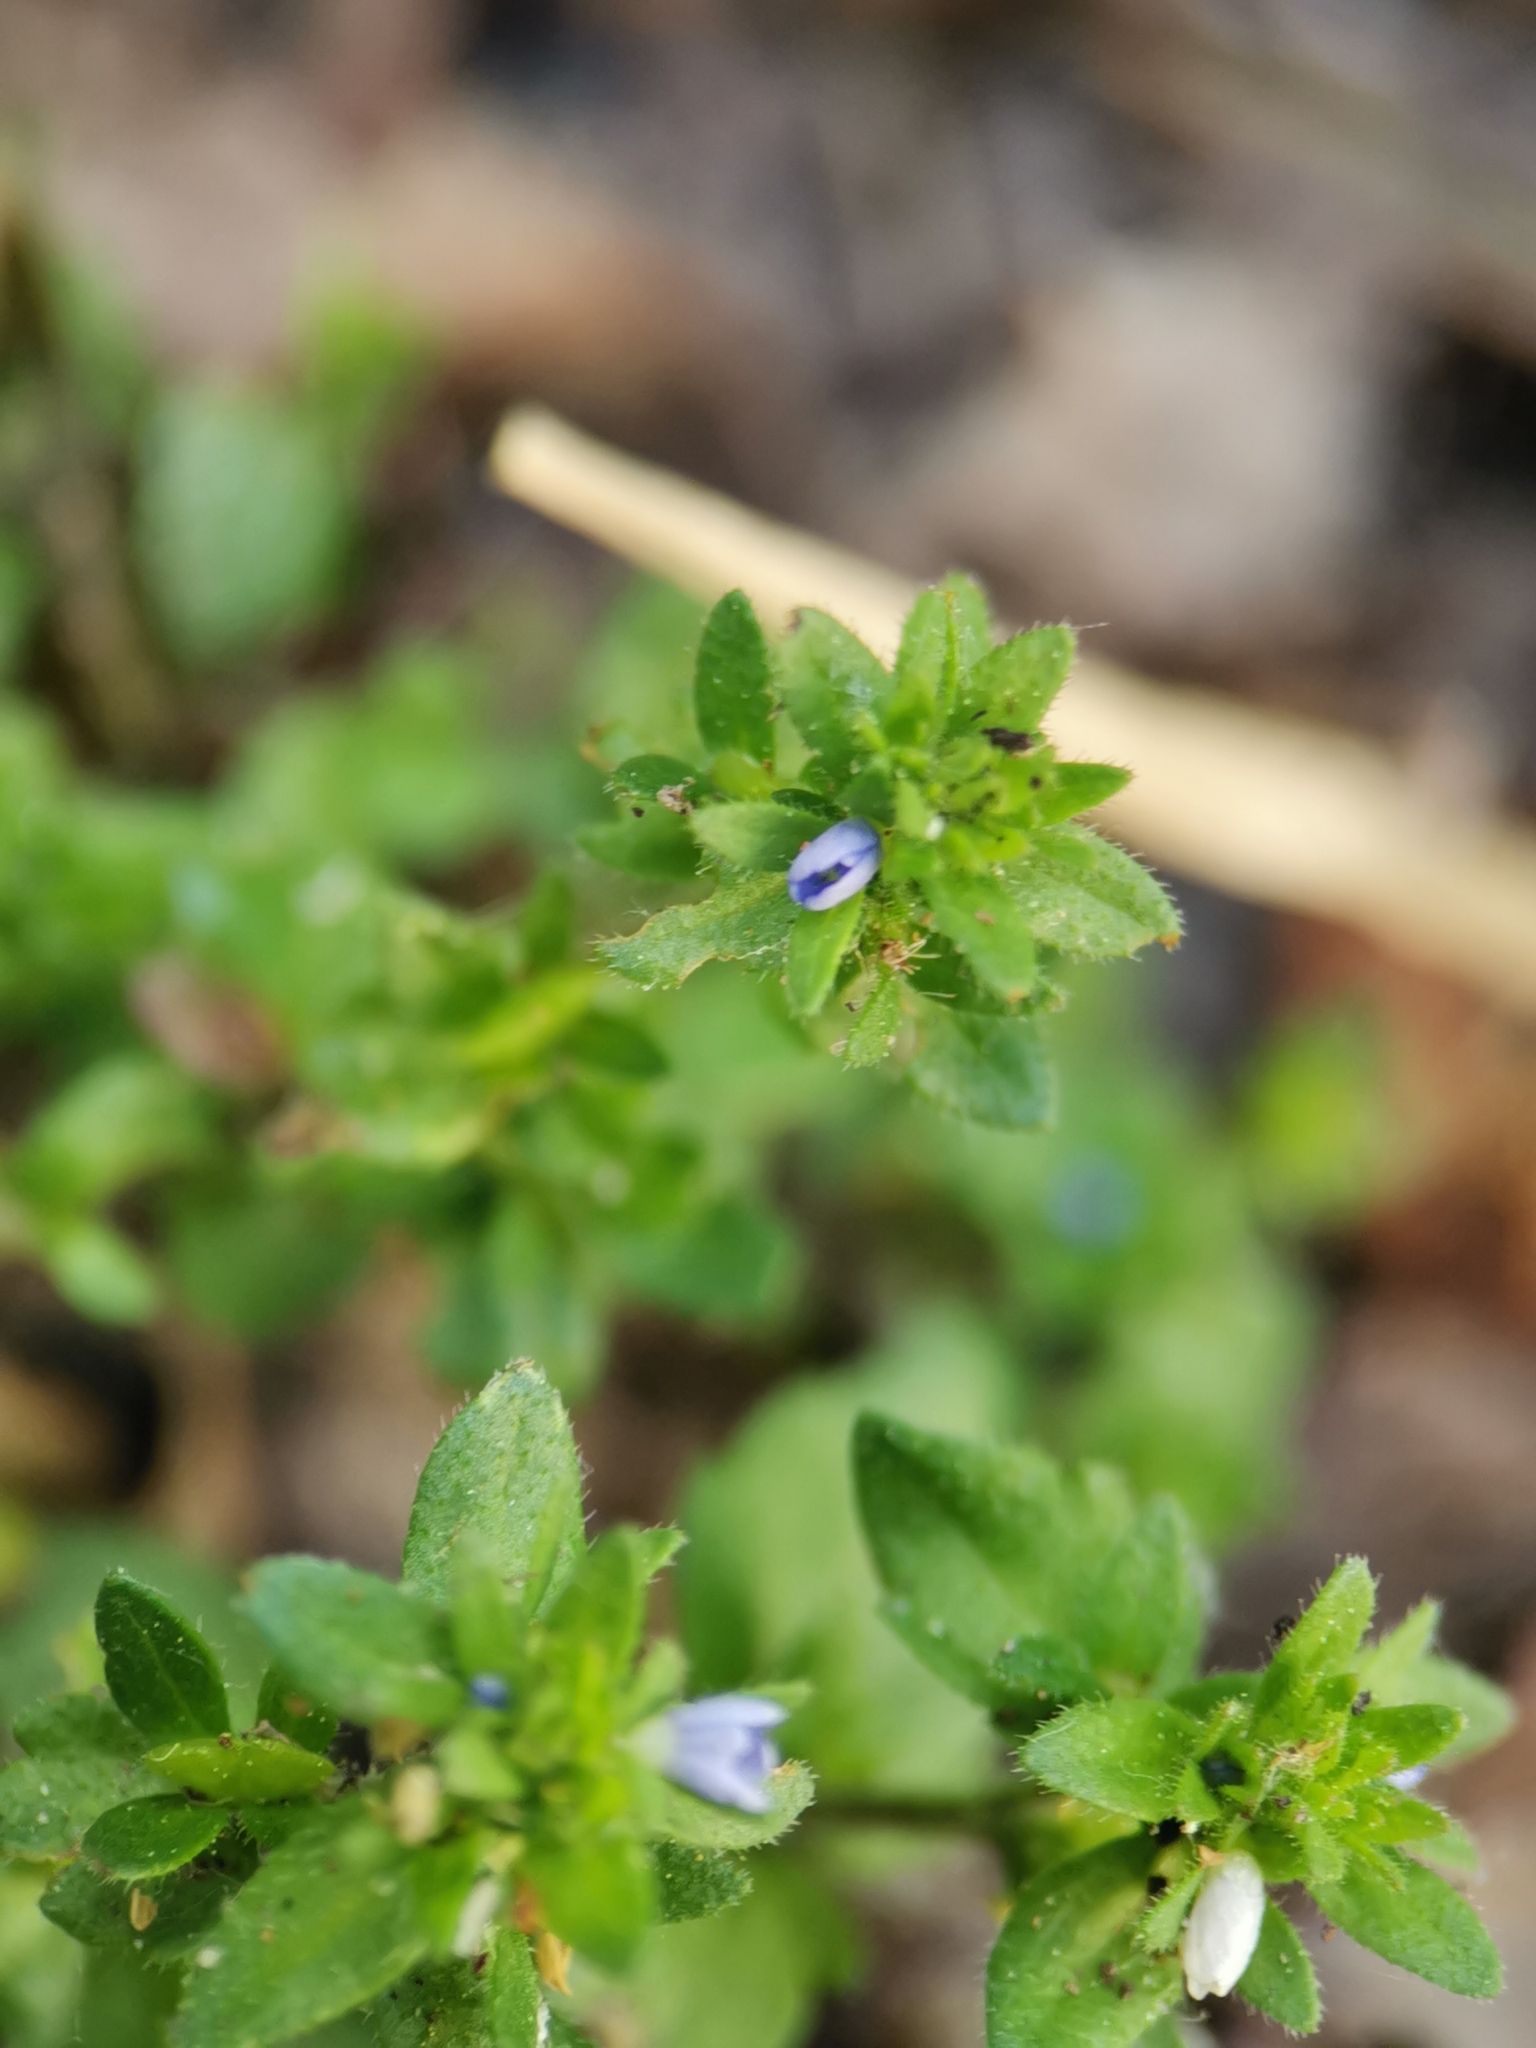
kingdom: Plantae
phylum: Tracheophyta
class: Magnoliopsida
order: Lamiales
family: Plantaginaceae
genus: Veronica
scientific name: Veronica arvensis
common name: Corn speedwell
